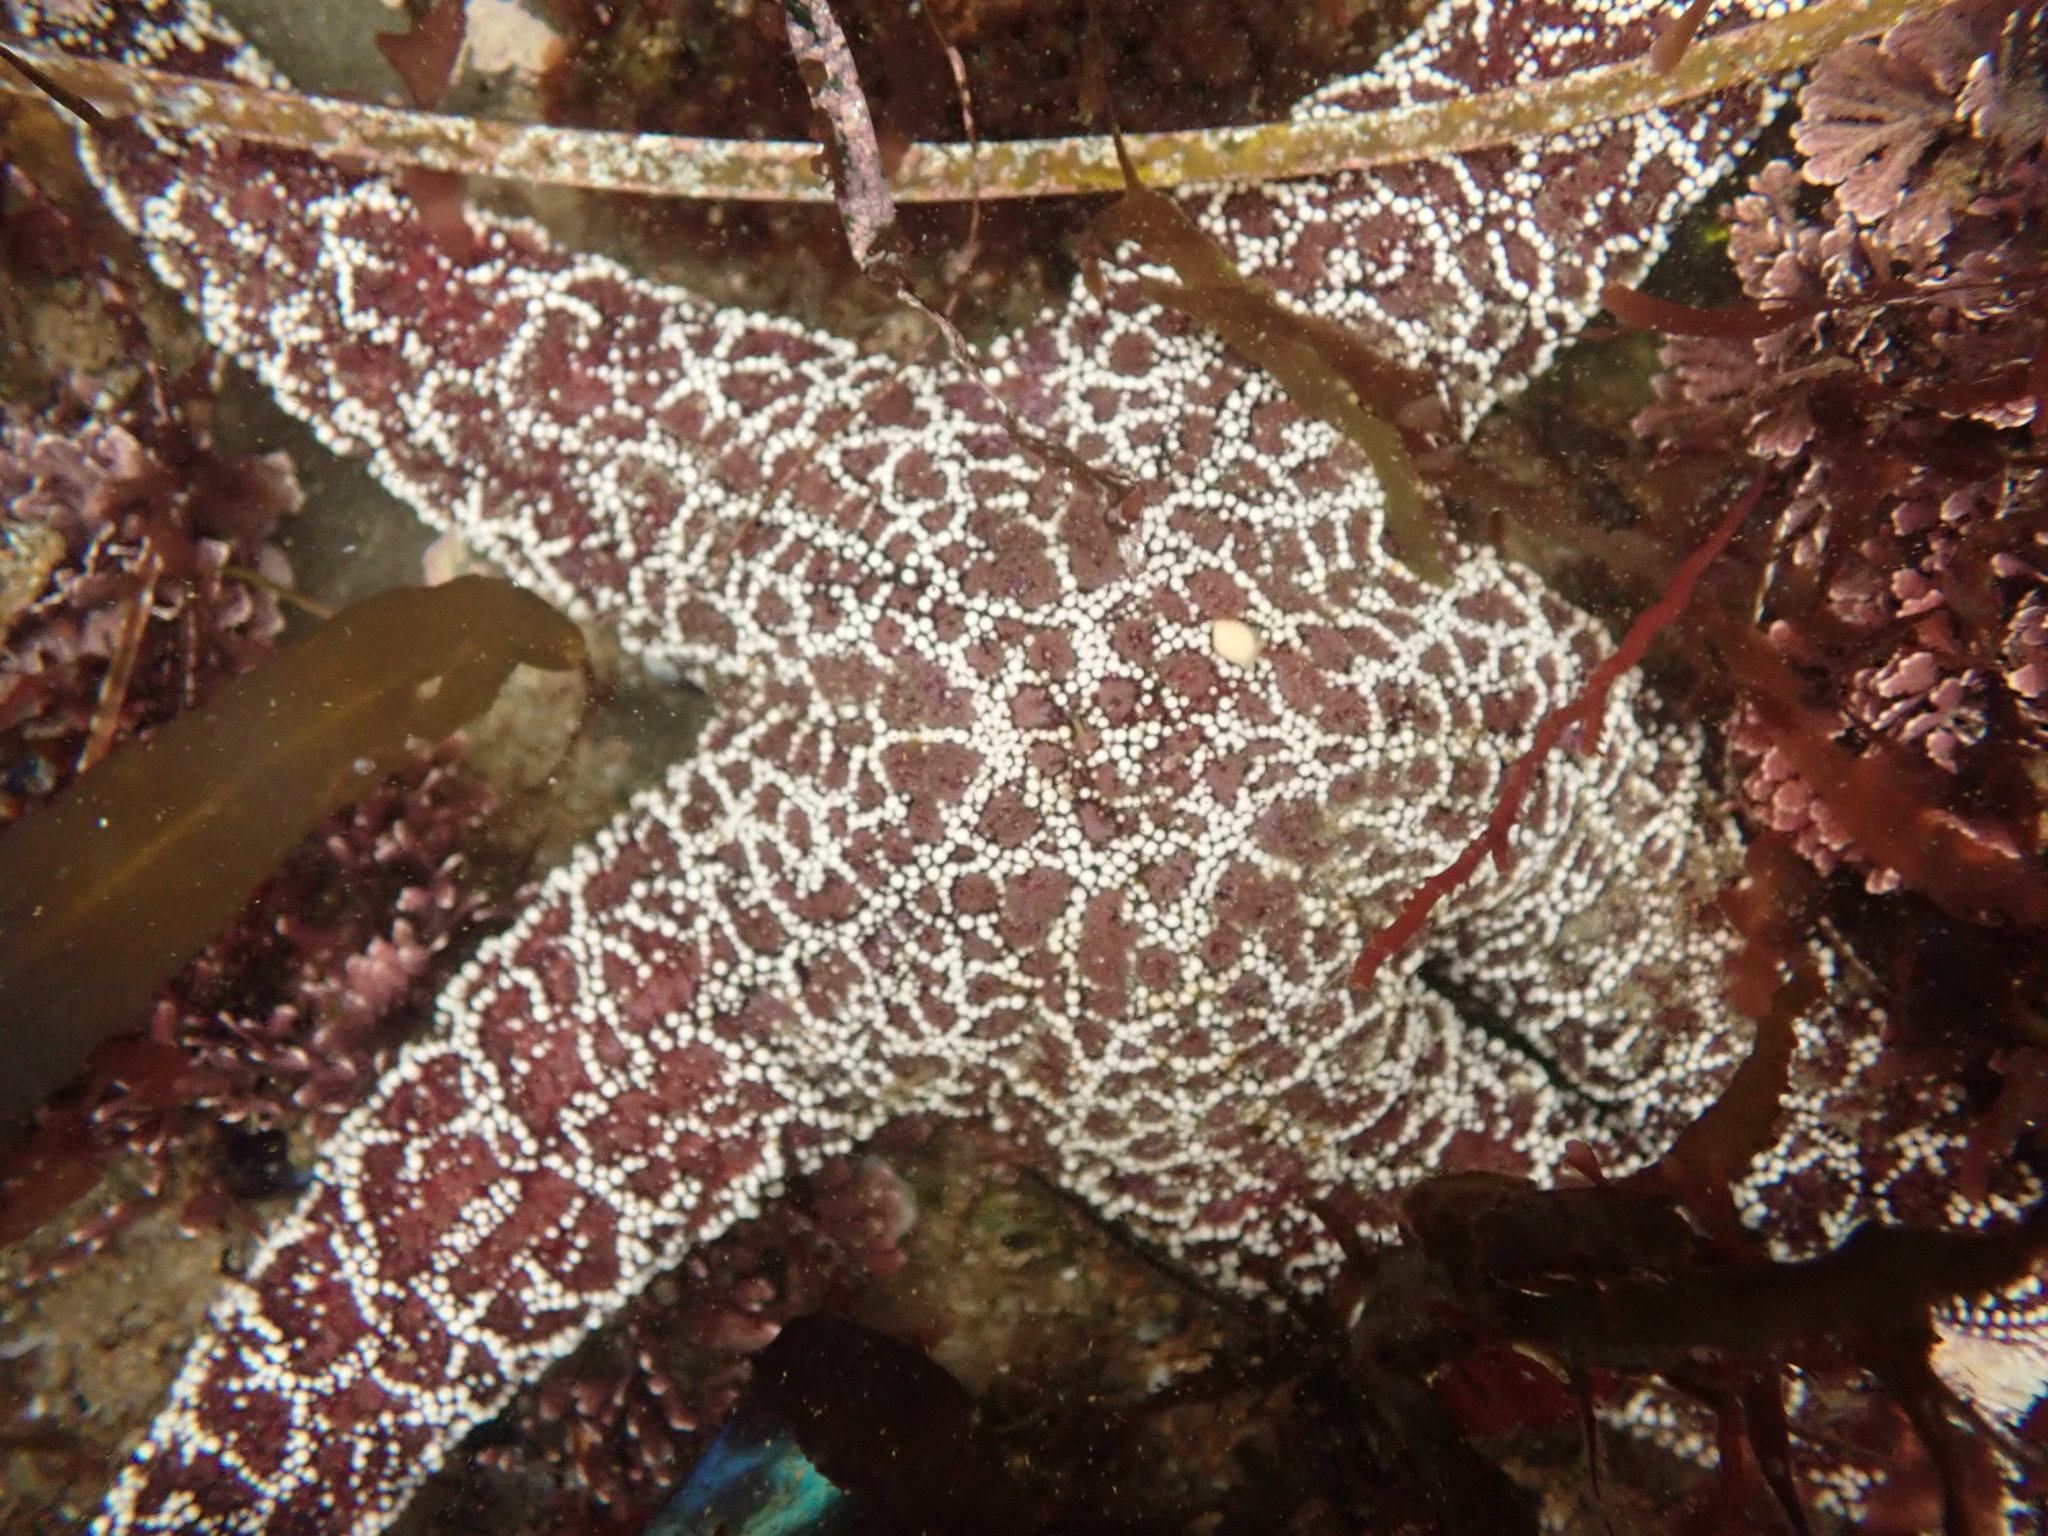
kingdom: Animalia
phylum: Echinodermata
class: Asteroidea
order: Forcipulatida
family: Asteriidae
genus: Pisaster
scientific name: Pisaster ochraceus
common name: Ochre stars
